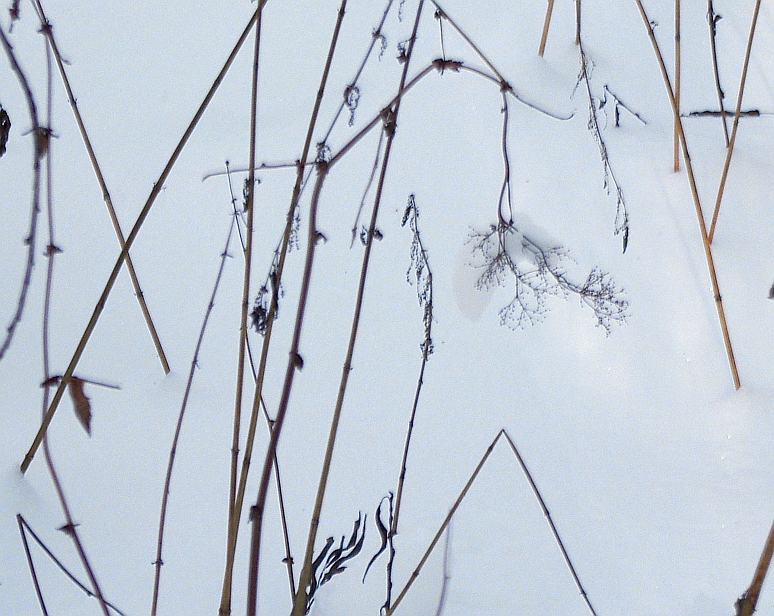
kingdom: Plantae
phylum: Tracheophyta
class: Magnoliopsida
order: Rosales
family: Rosaceae
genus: Filipendula
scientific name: Filipendula ulmaria
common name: Meadowsweet
